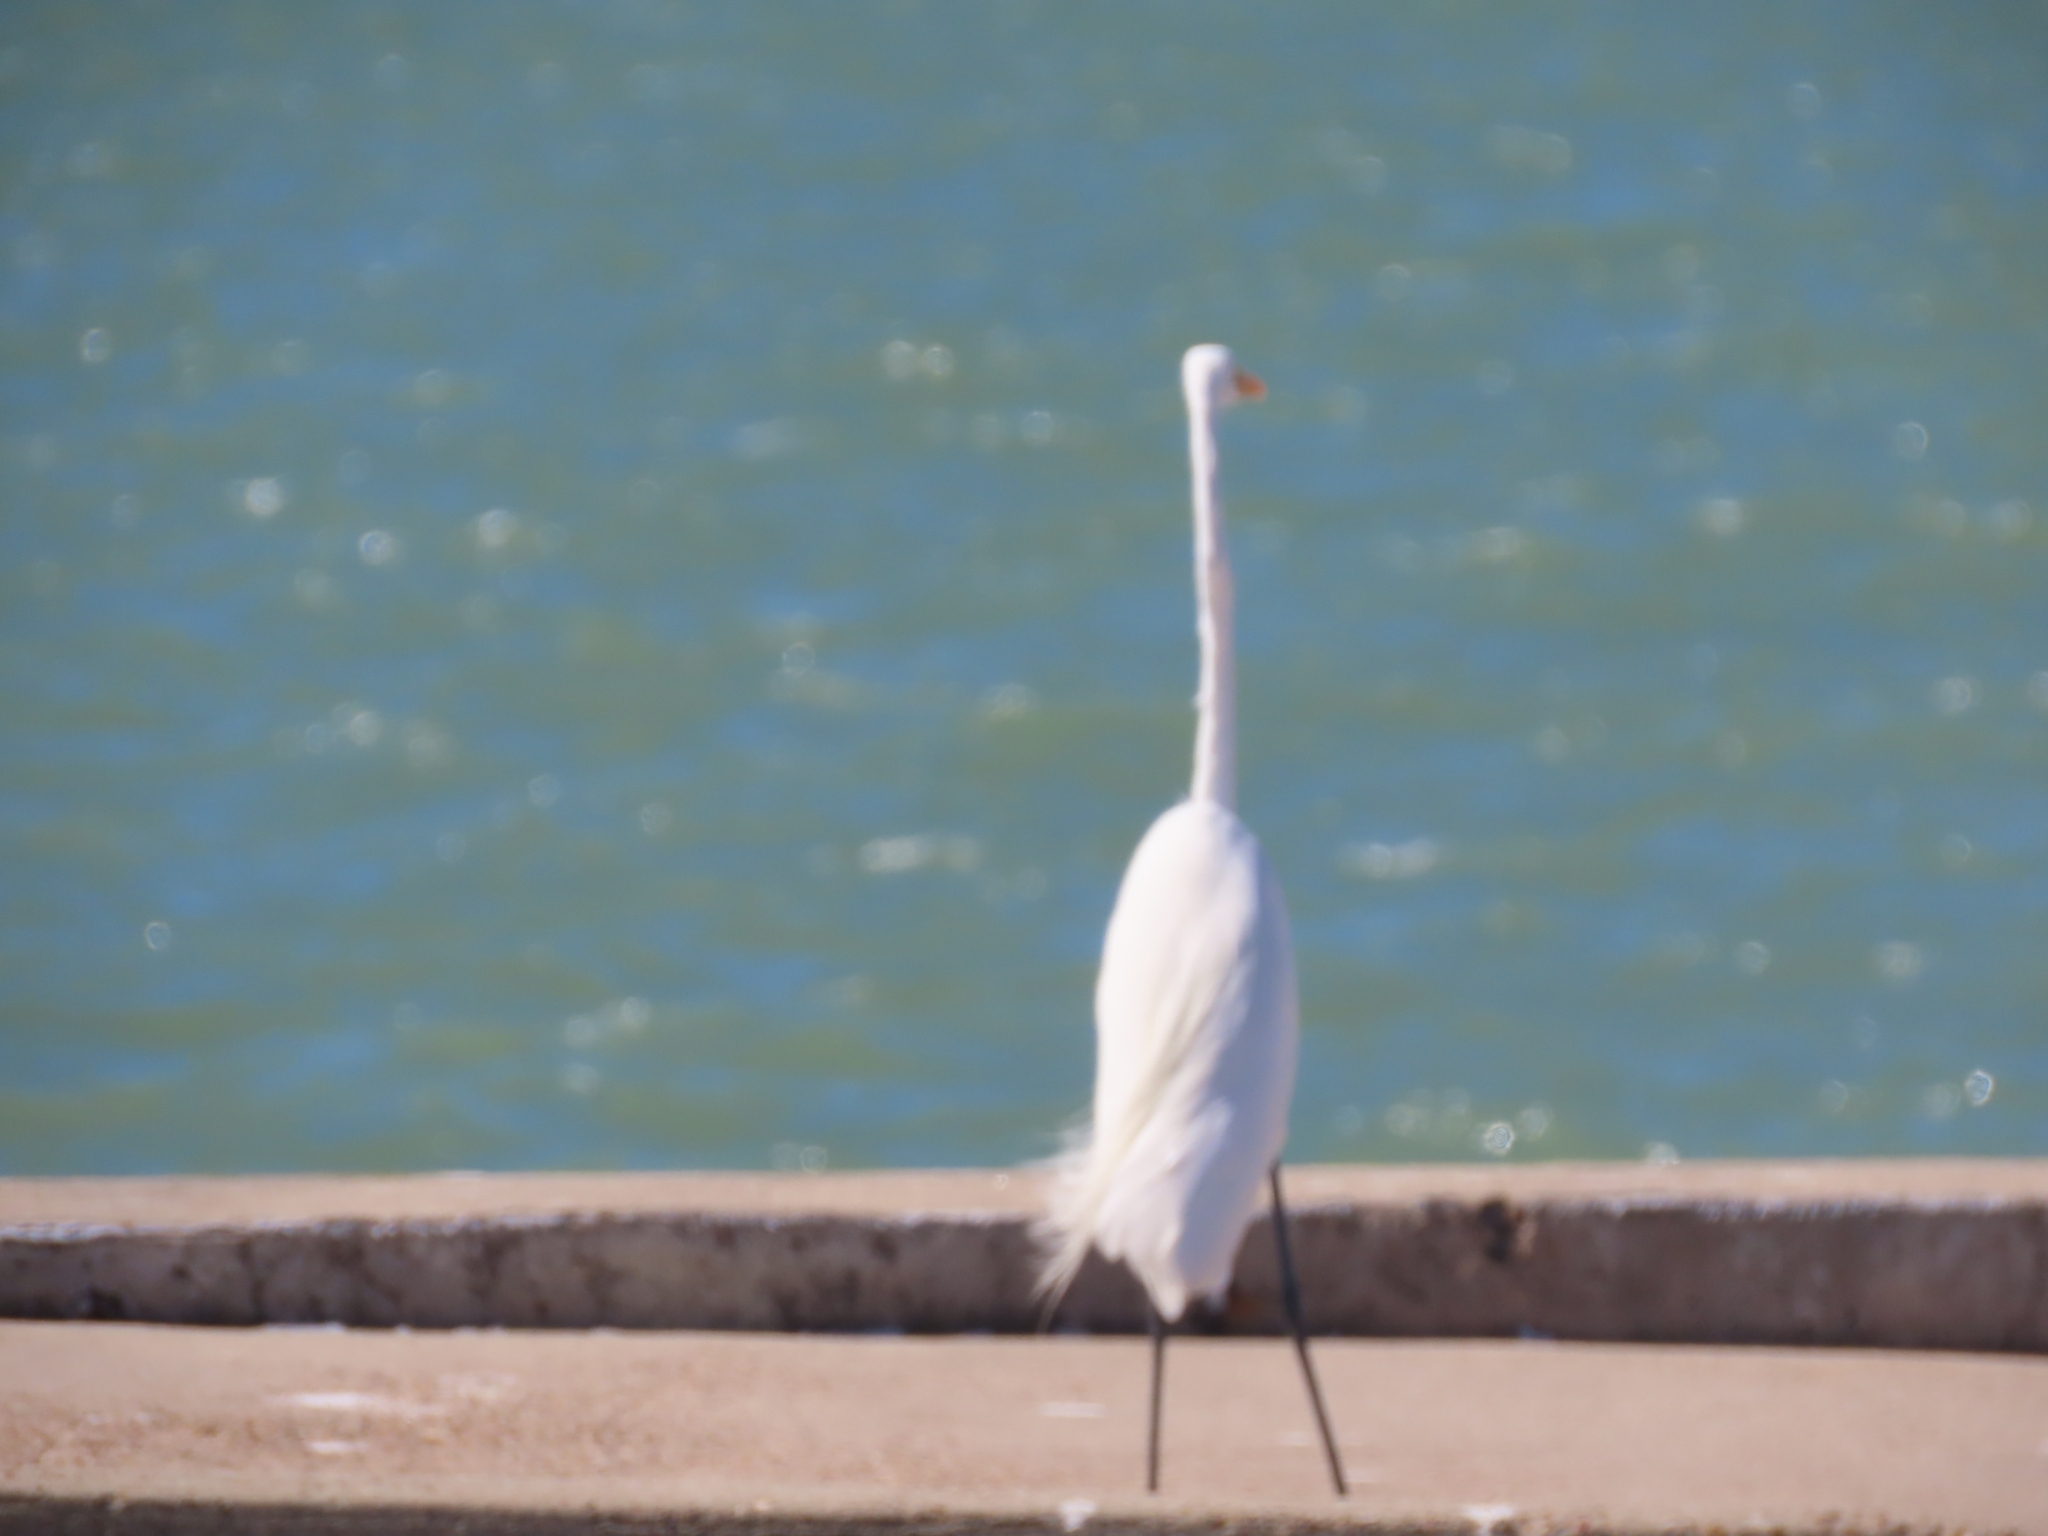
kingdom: Animalia
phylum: Chordata
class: Aves
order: Pelecaniformes
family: Ardeidae
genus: Ardea
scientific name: Ardea alba
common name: Great egret
